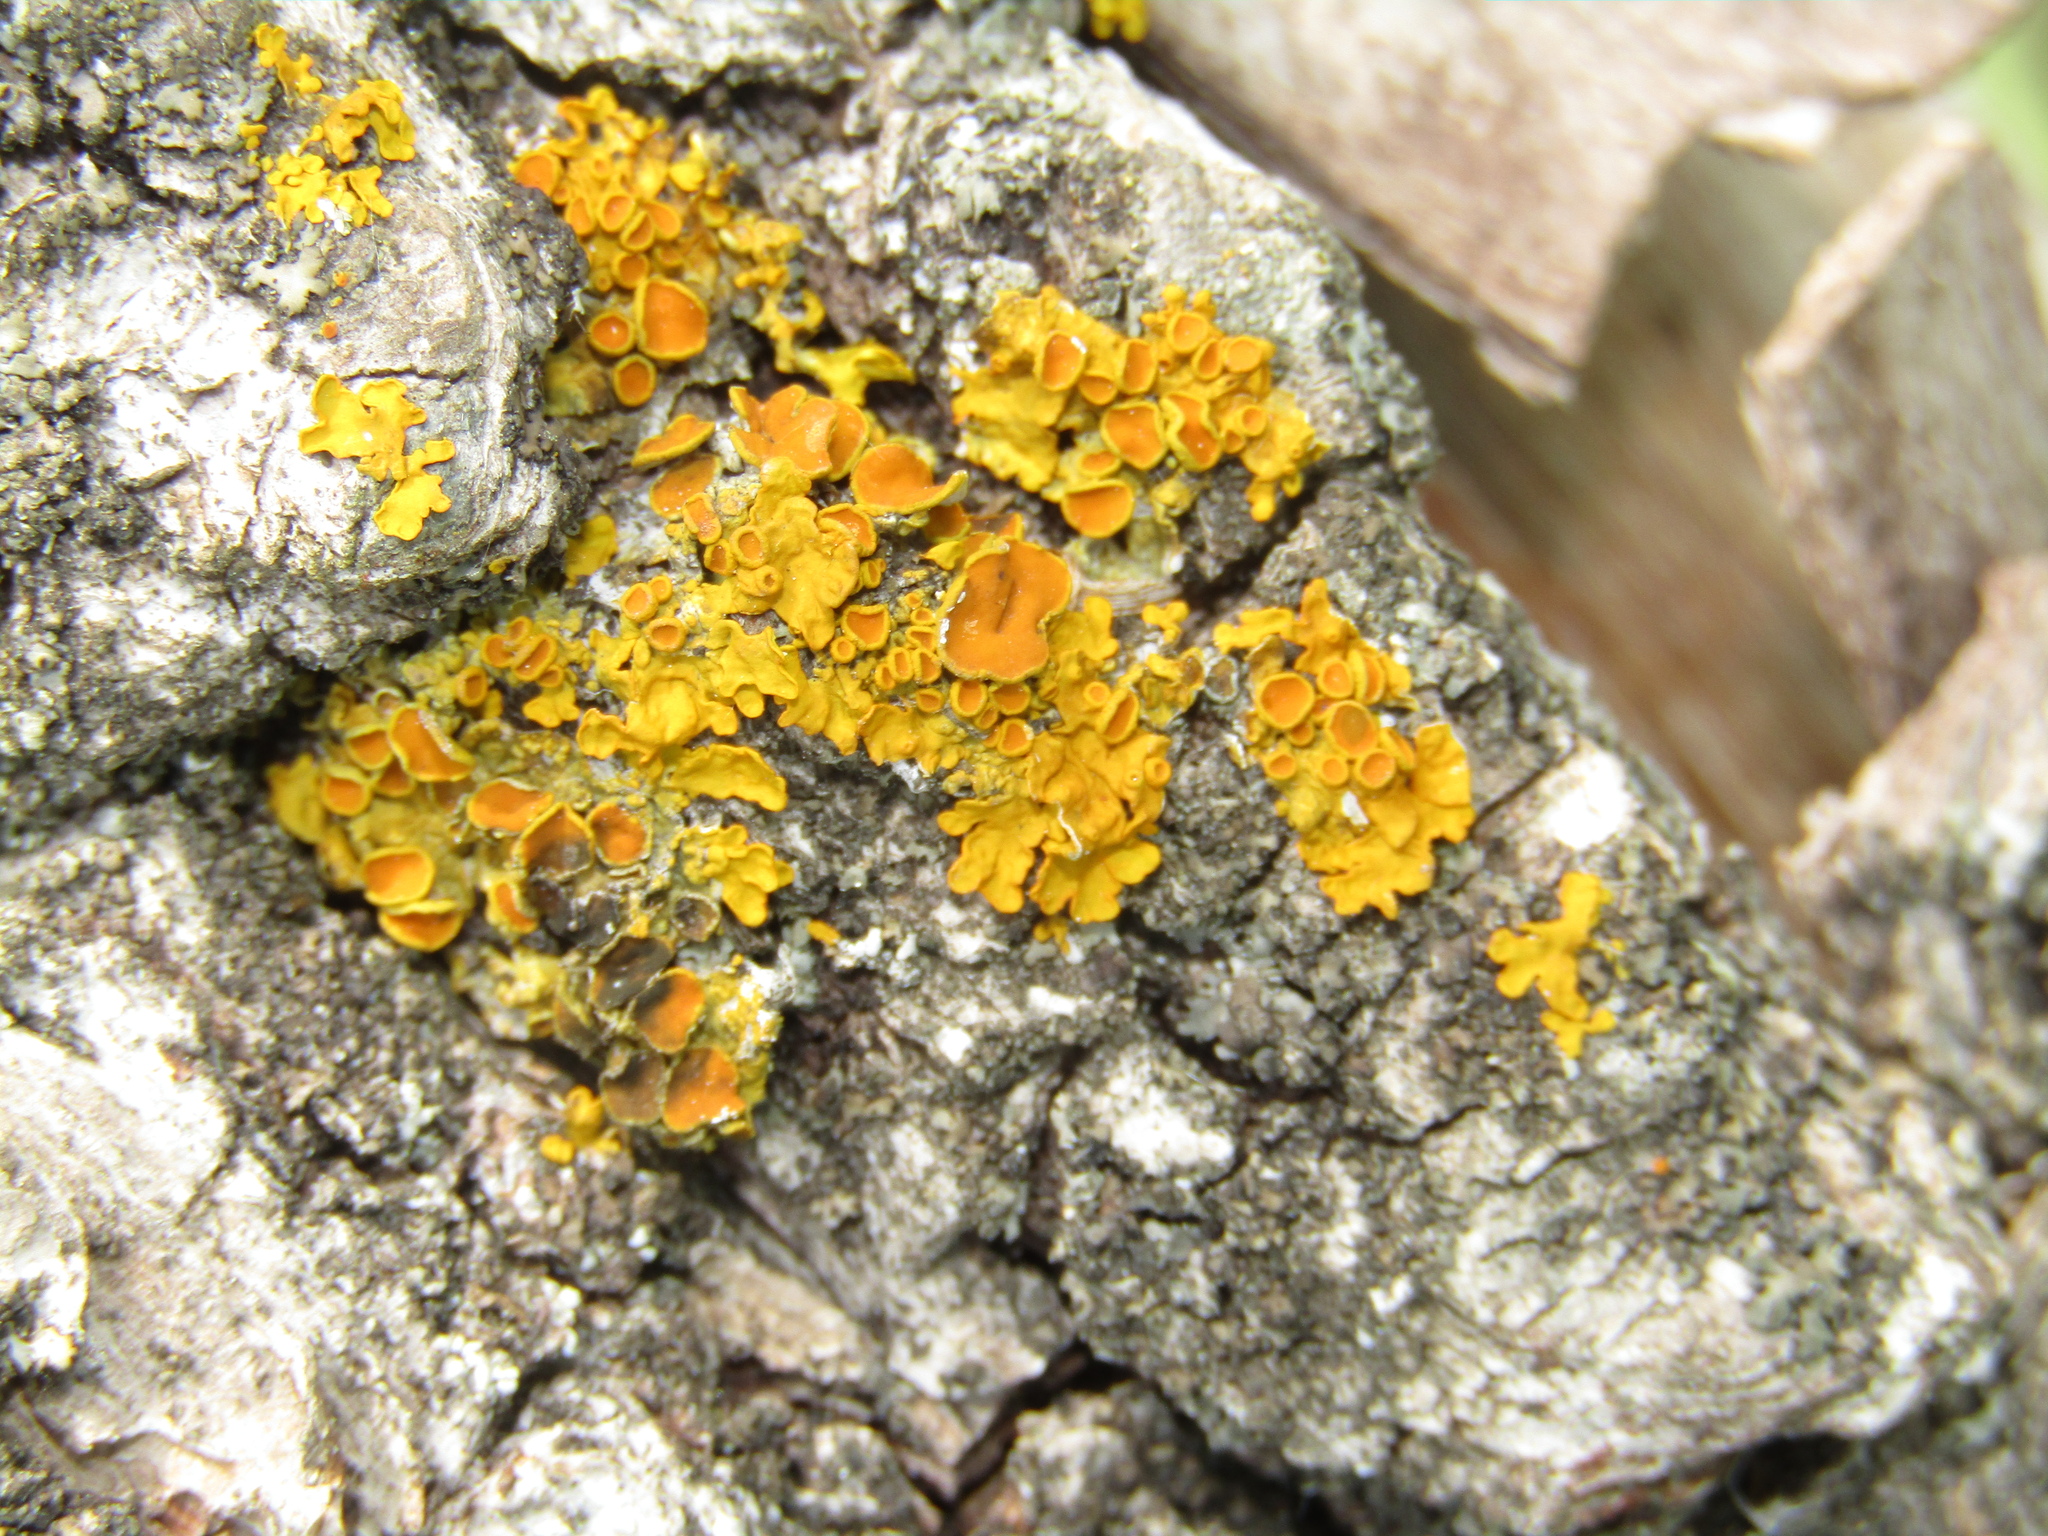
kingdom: Fungi
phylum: Ascomycota
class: Lecanoromycetes
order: Teloschistales
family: Teloschistaceae
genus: Xanthoria
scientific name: Xanthoria parietina
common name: Common orange lichen
